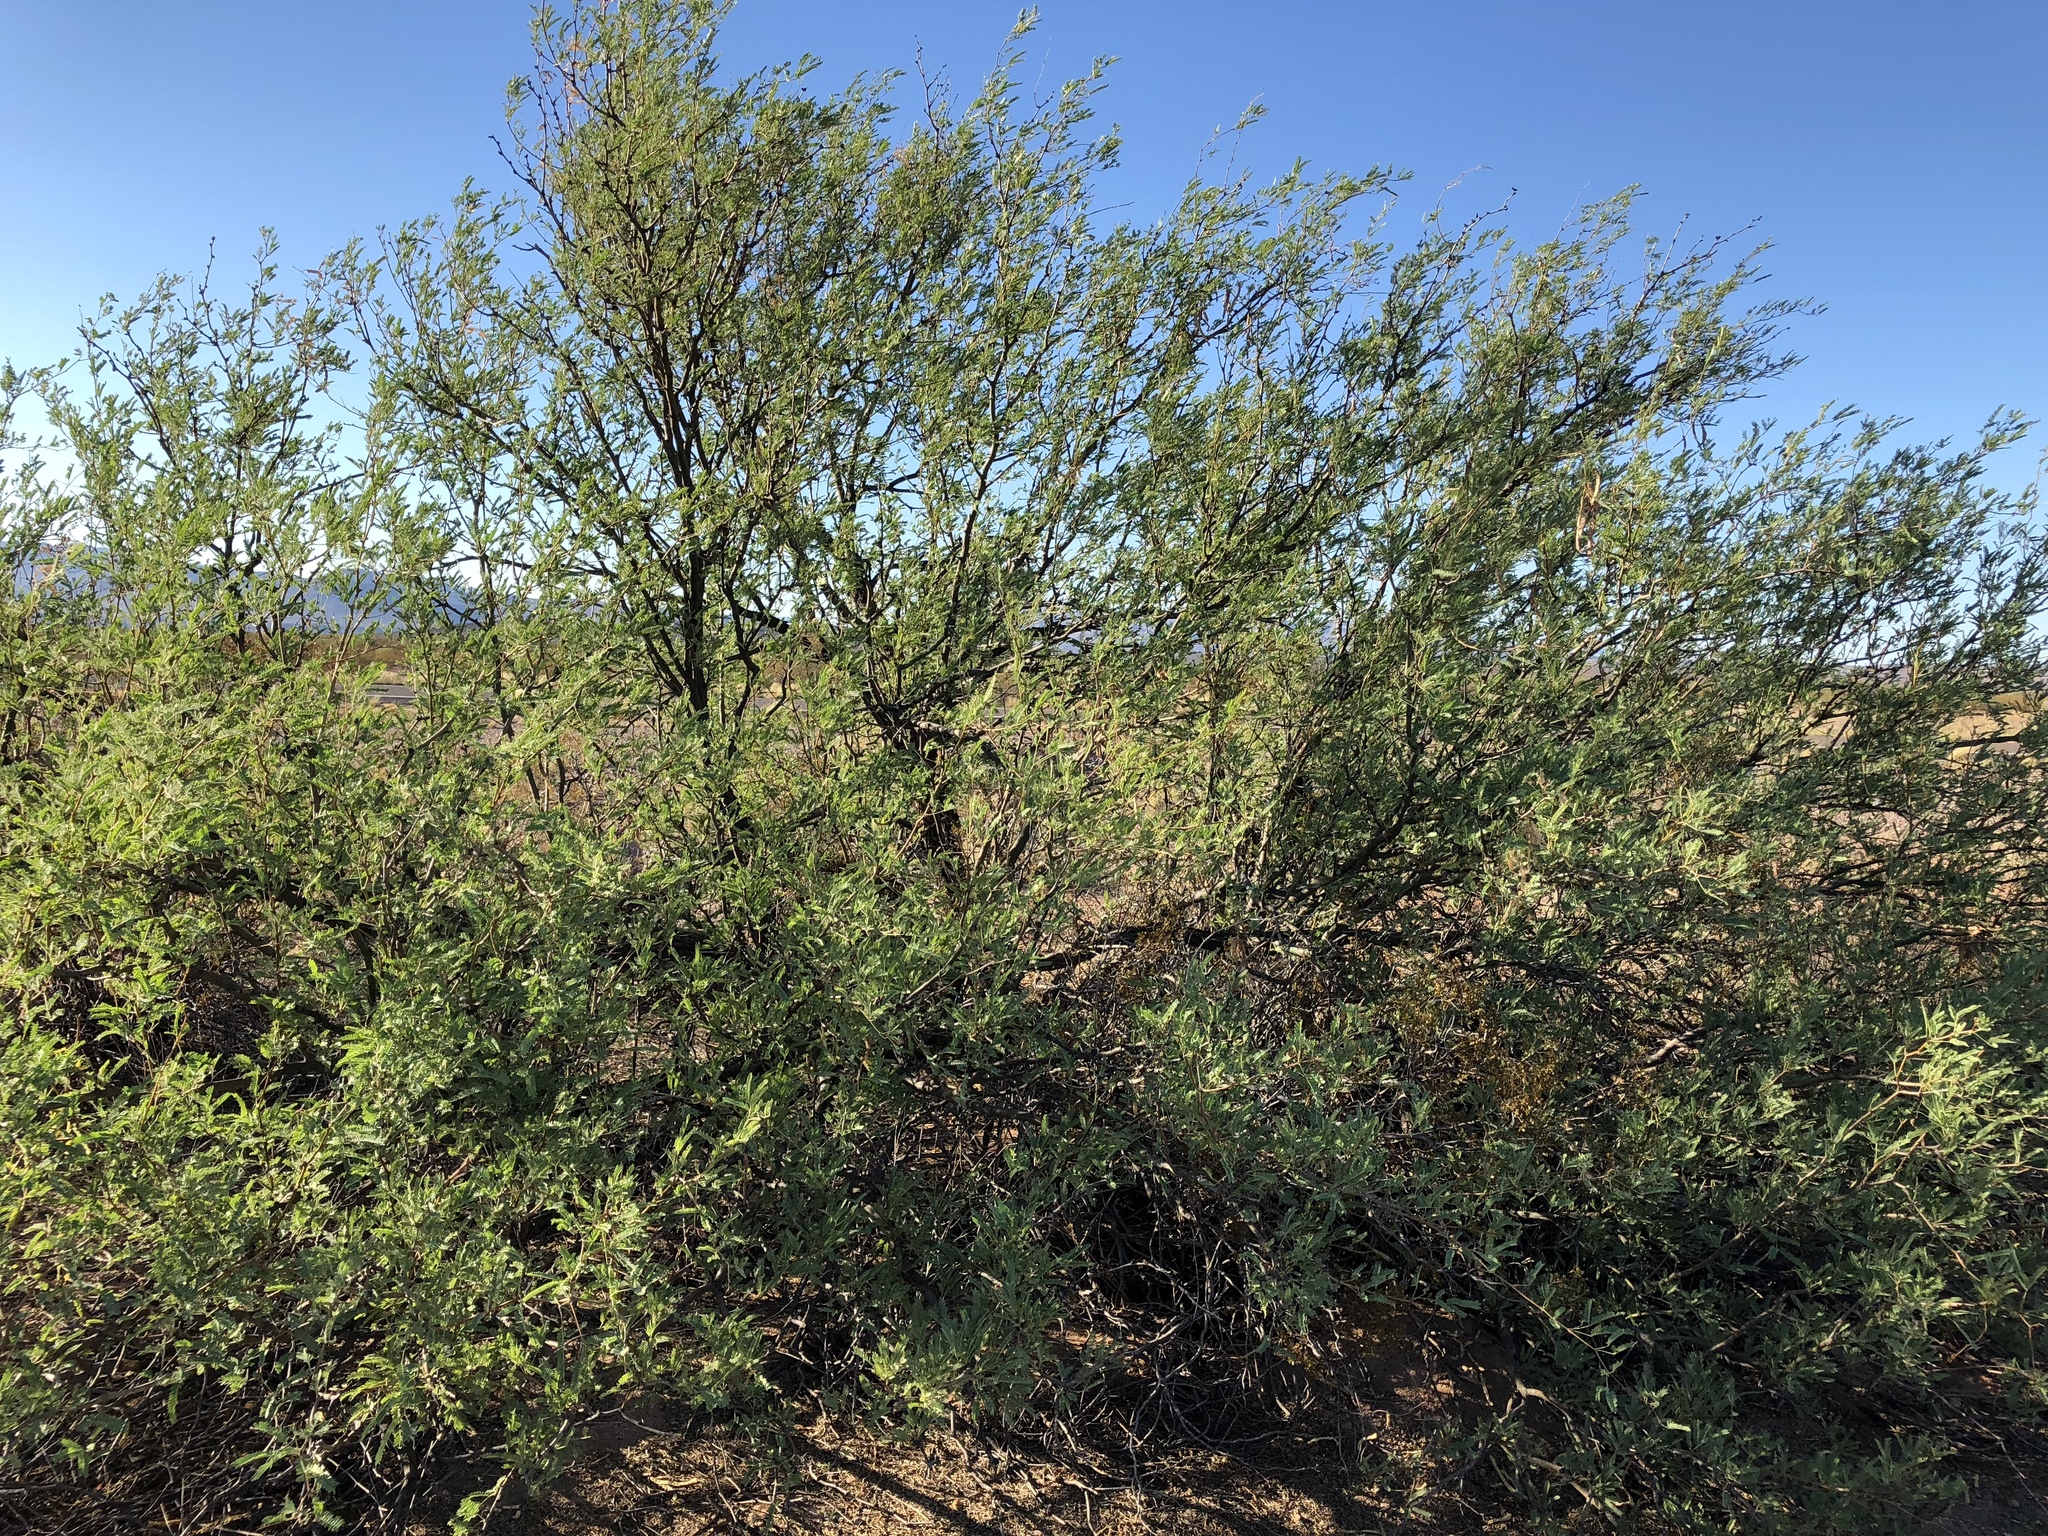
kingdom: Plantae
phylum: Tracheophyta
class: Magnoliopsida
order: Fabales
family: Fabaceae
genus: Prosopis
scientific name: Prosopis velutina
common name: Velvet mesquite
